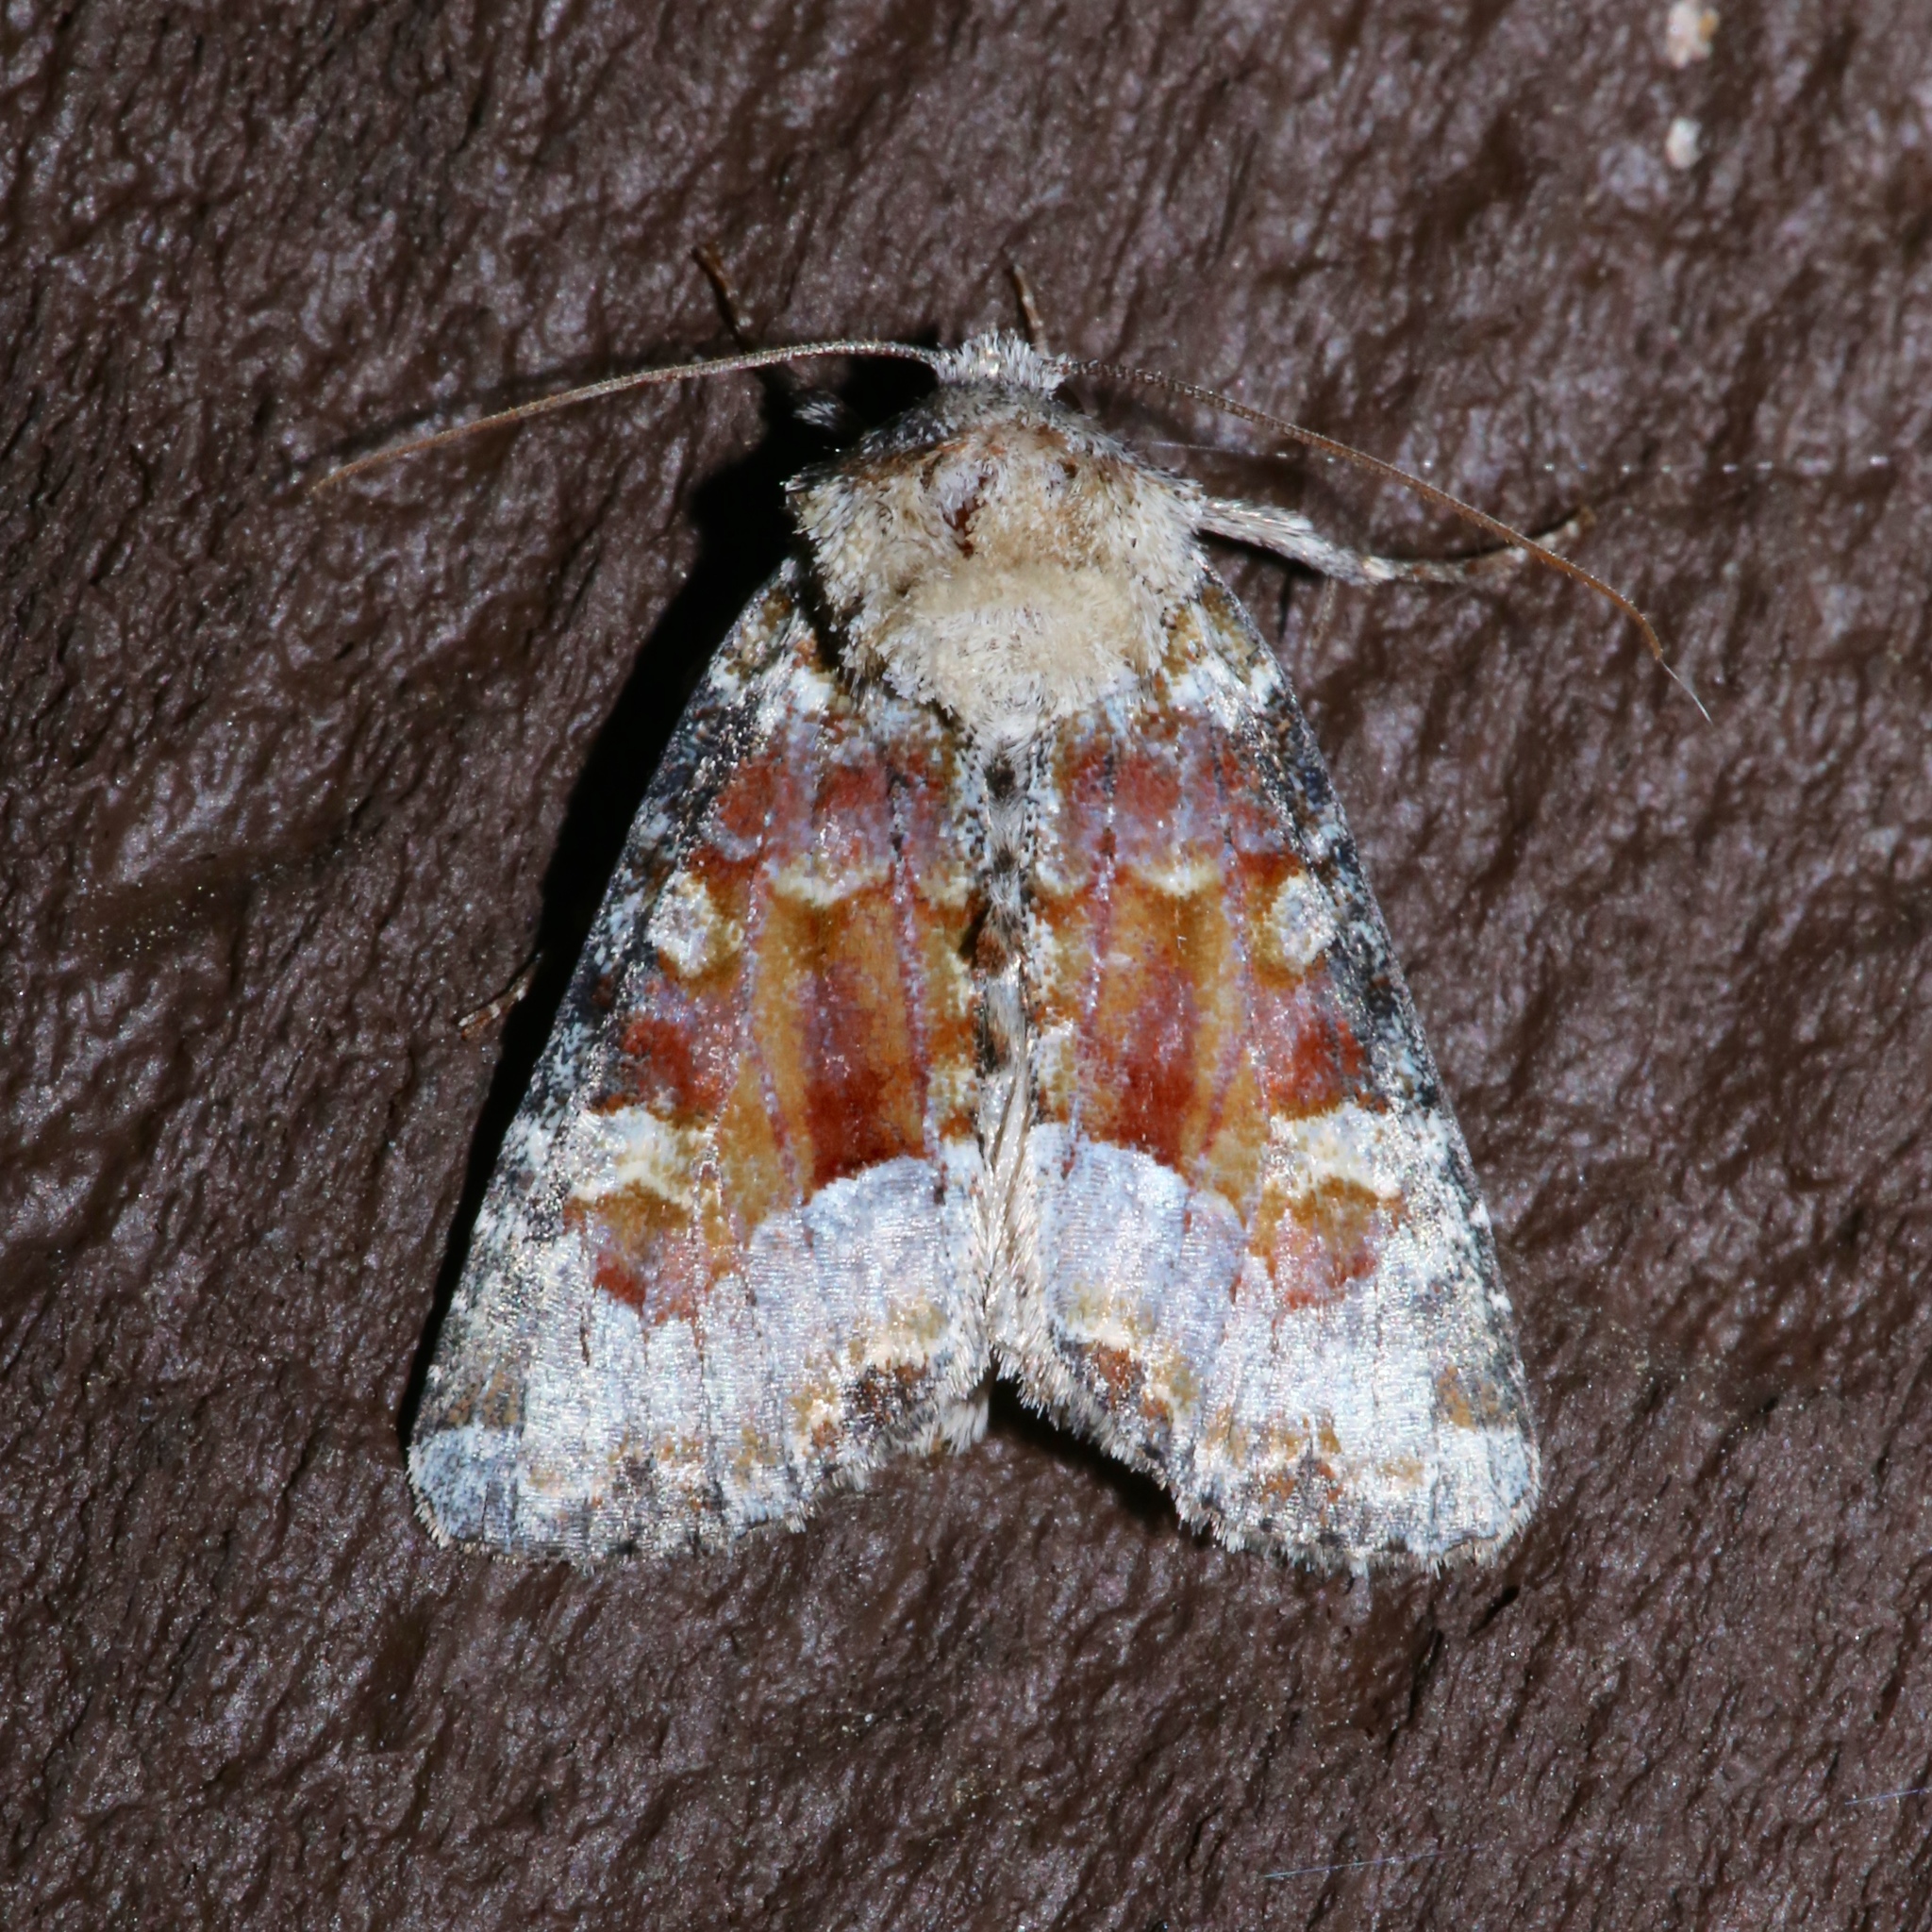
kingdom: Animalia
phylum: Arthropoda
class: Insecta
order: Lepidoptera
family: Noctuidae
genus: Oligia
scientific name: Oligia bridghamii
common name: Bridgham's brocade moth
